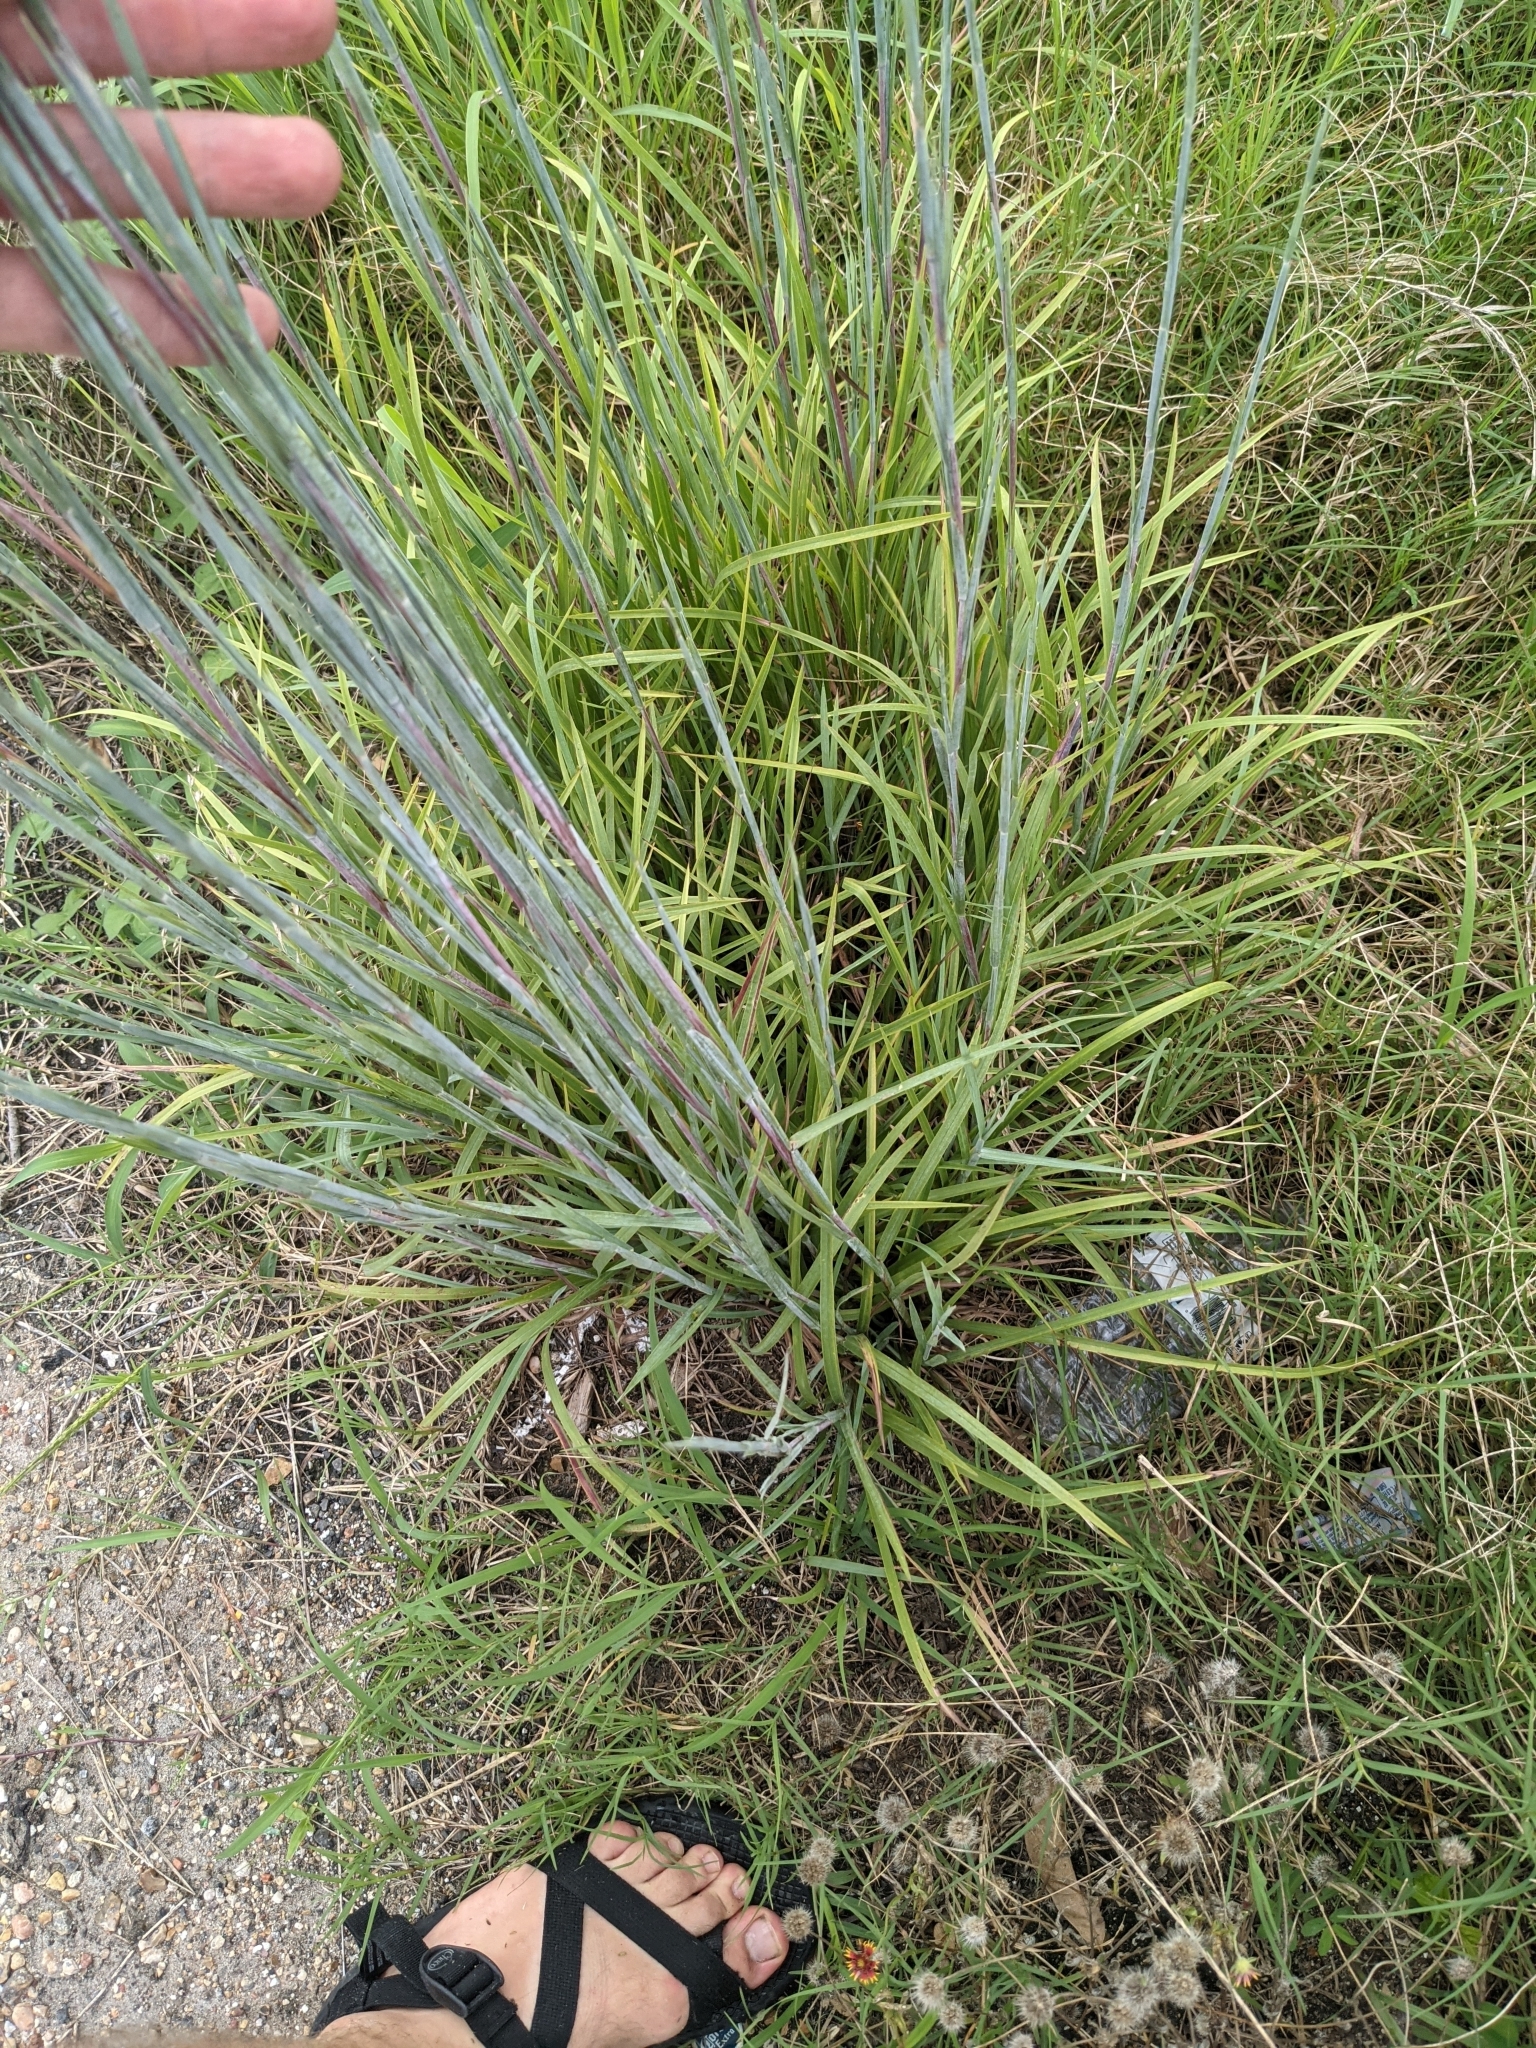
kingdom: Plantae
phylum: Tracheophyta
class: Liliopsida
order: Poales
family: Poaceae
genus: Schizachyrium
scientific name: Schizachyrium scoparium
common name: Little bluestem
